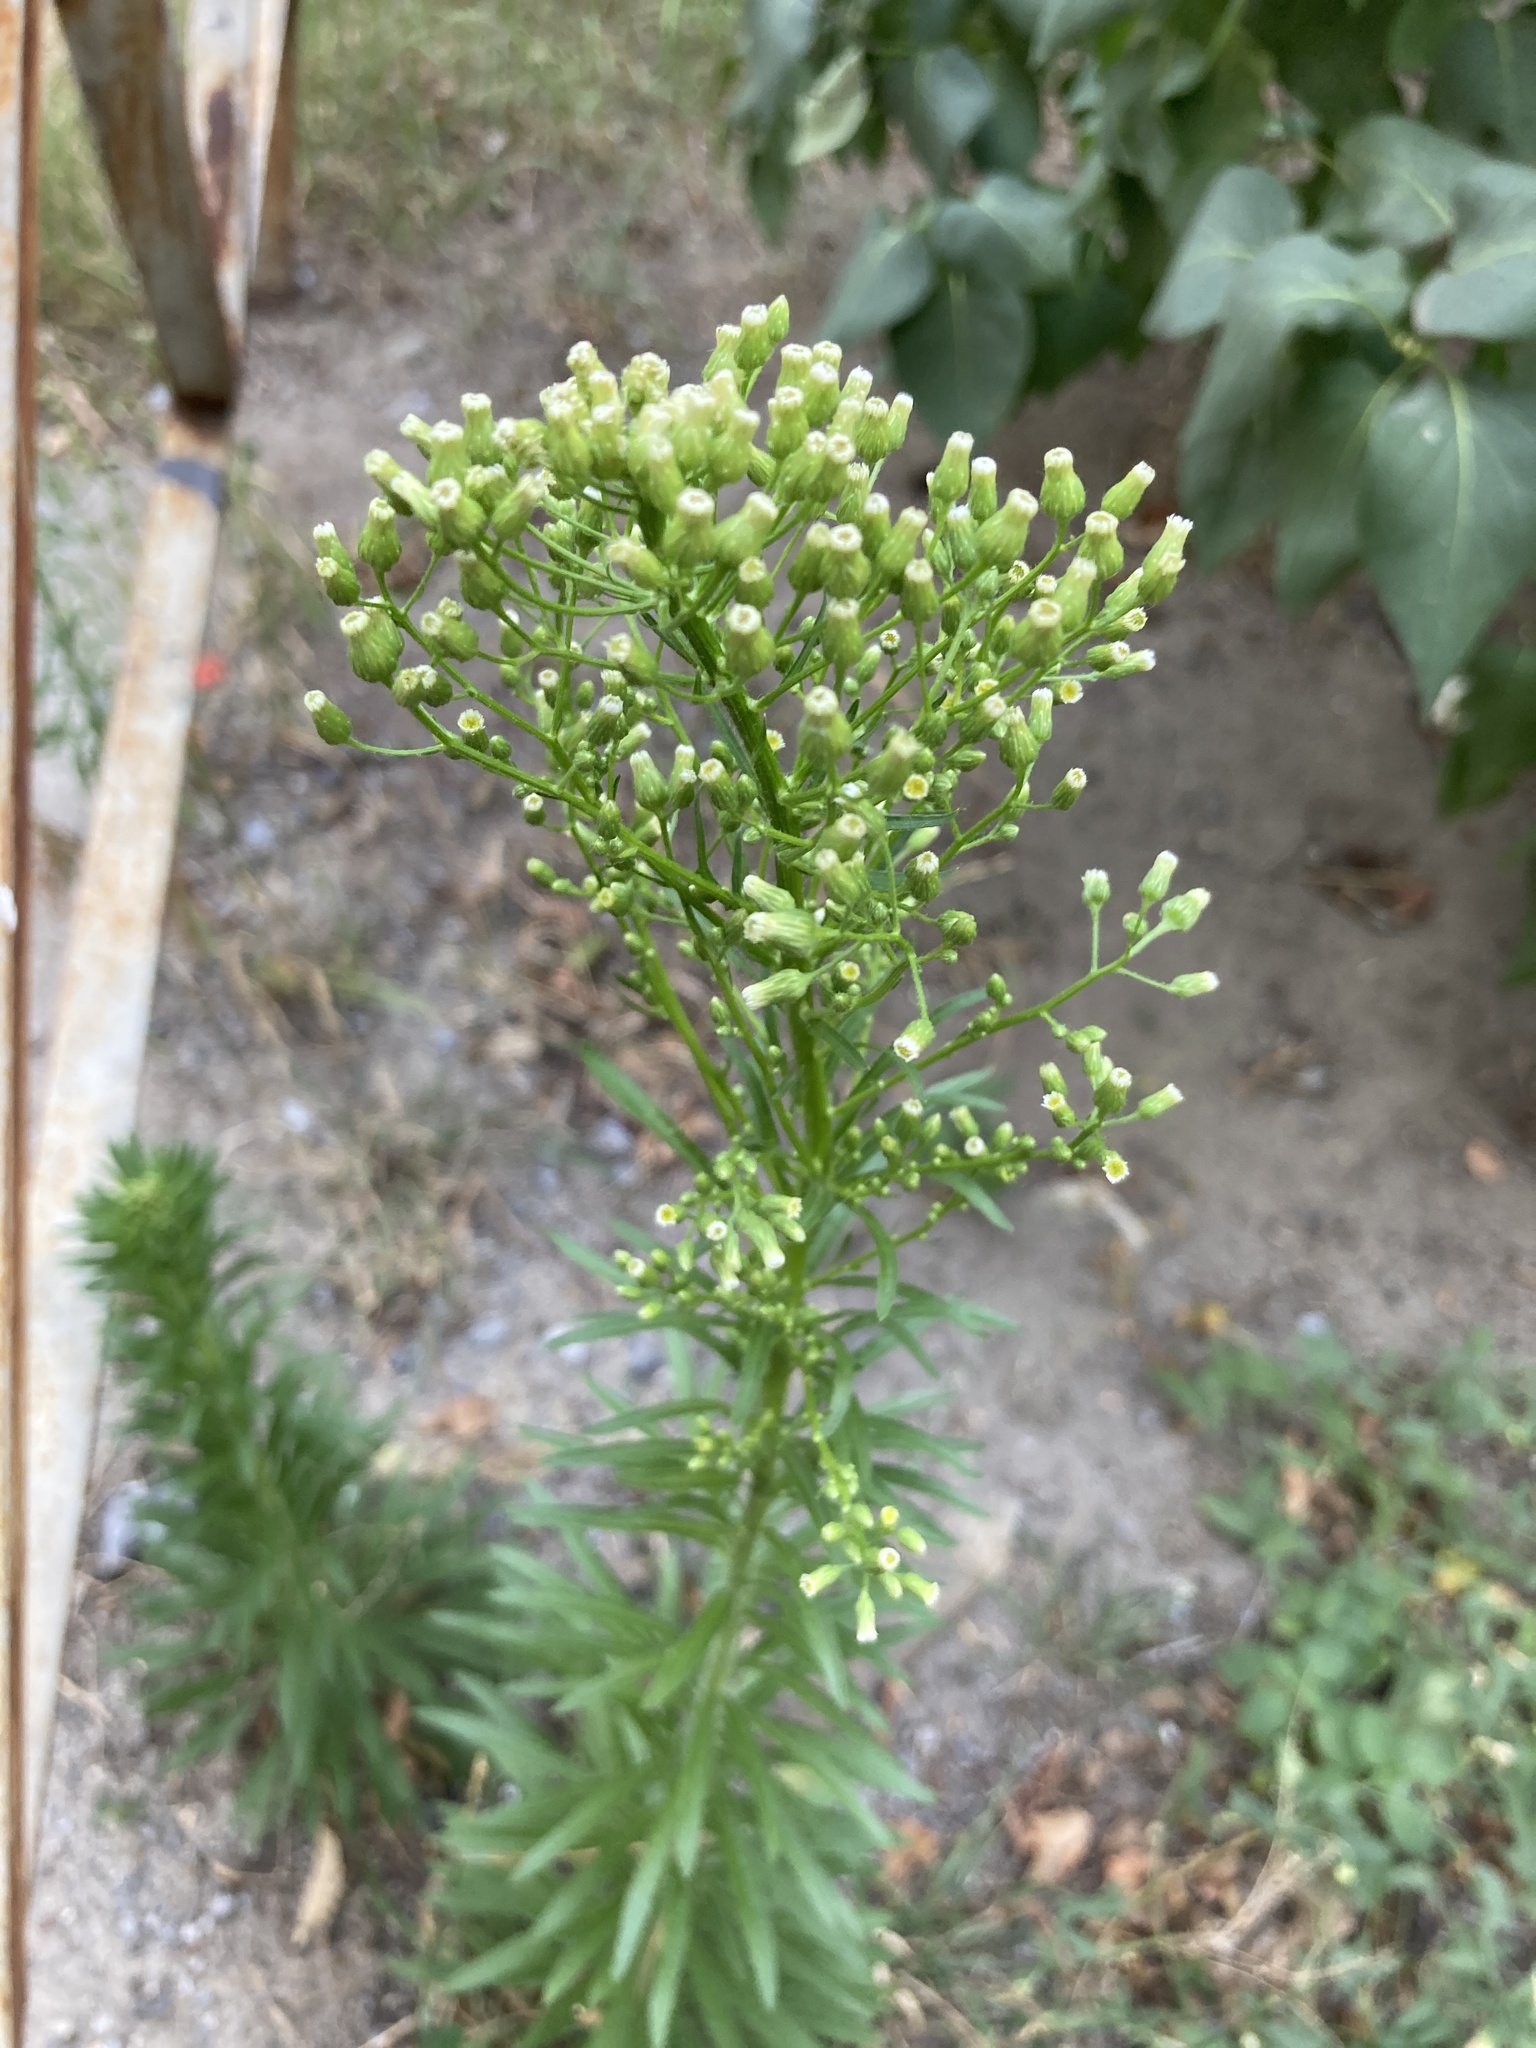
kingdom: Plantae
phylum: Tracheophyta
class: Magnoliopsida
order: Asterales
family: Asteraceae
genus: Erigeron
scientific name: Erigeron canadensis
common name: Canadian fleabane
